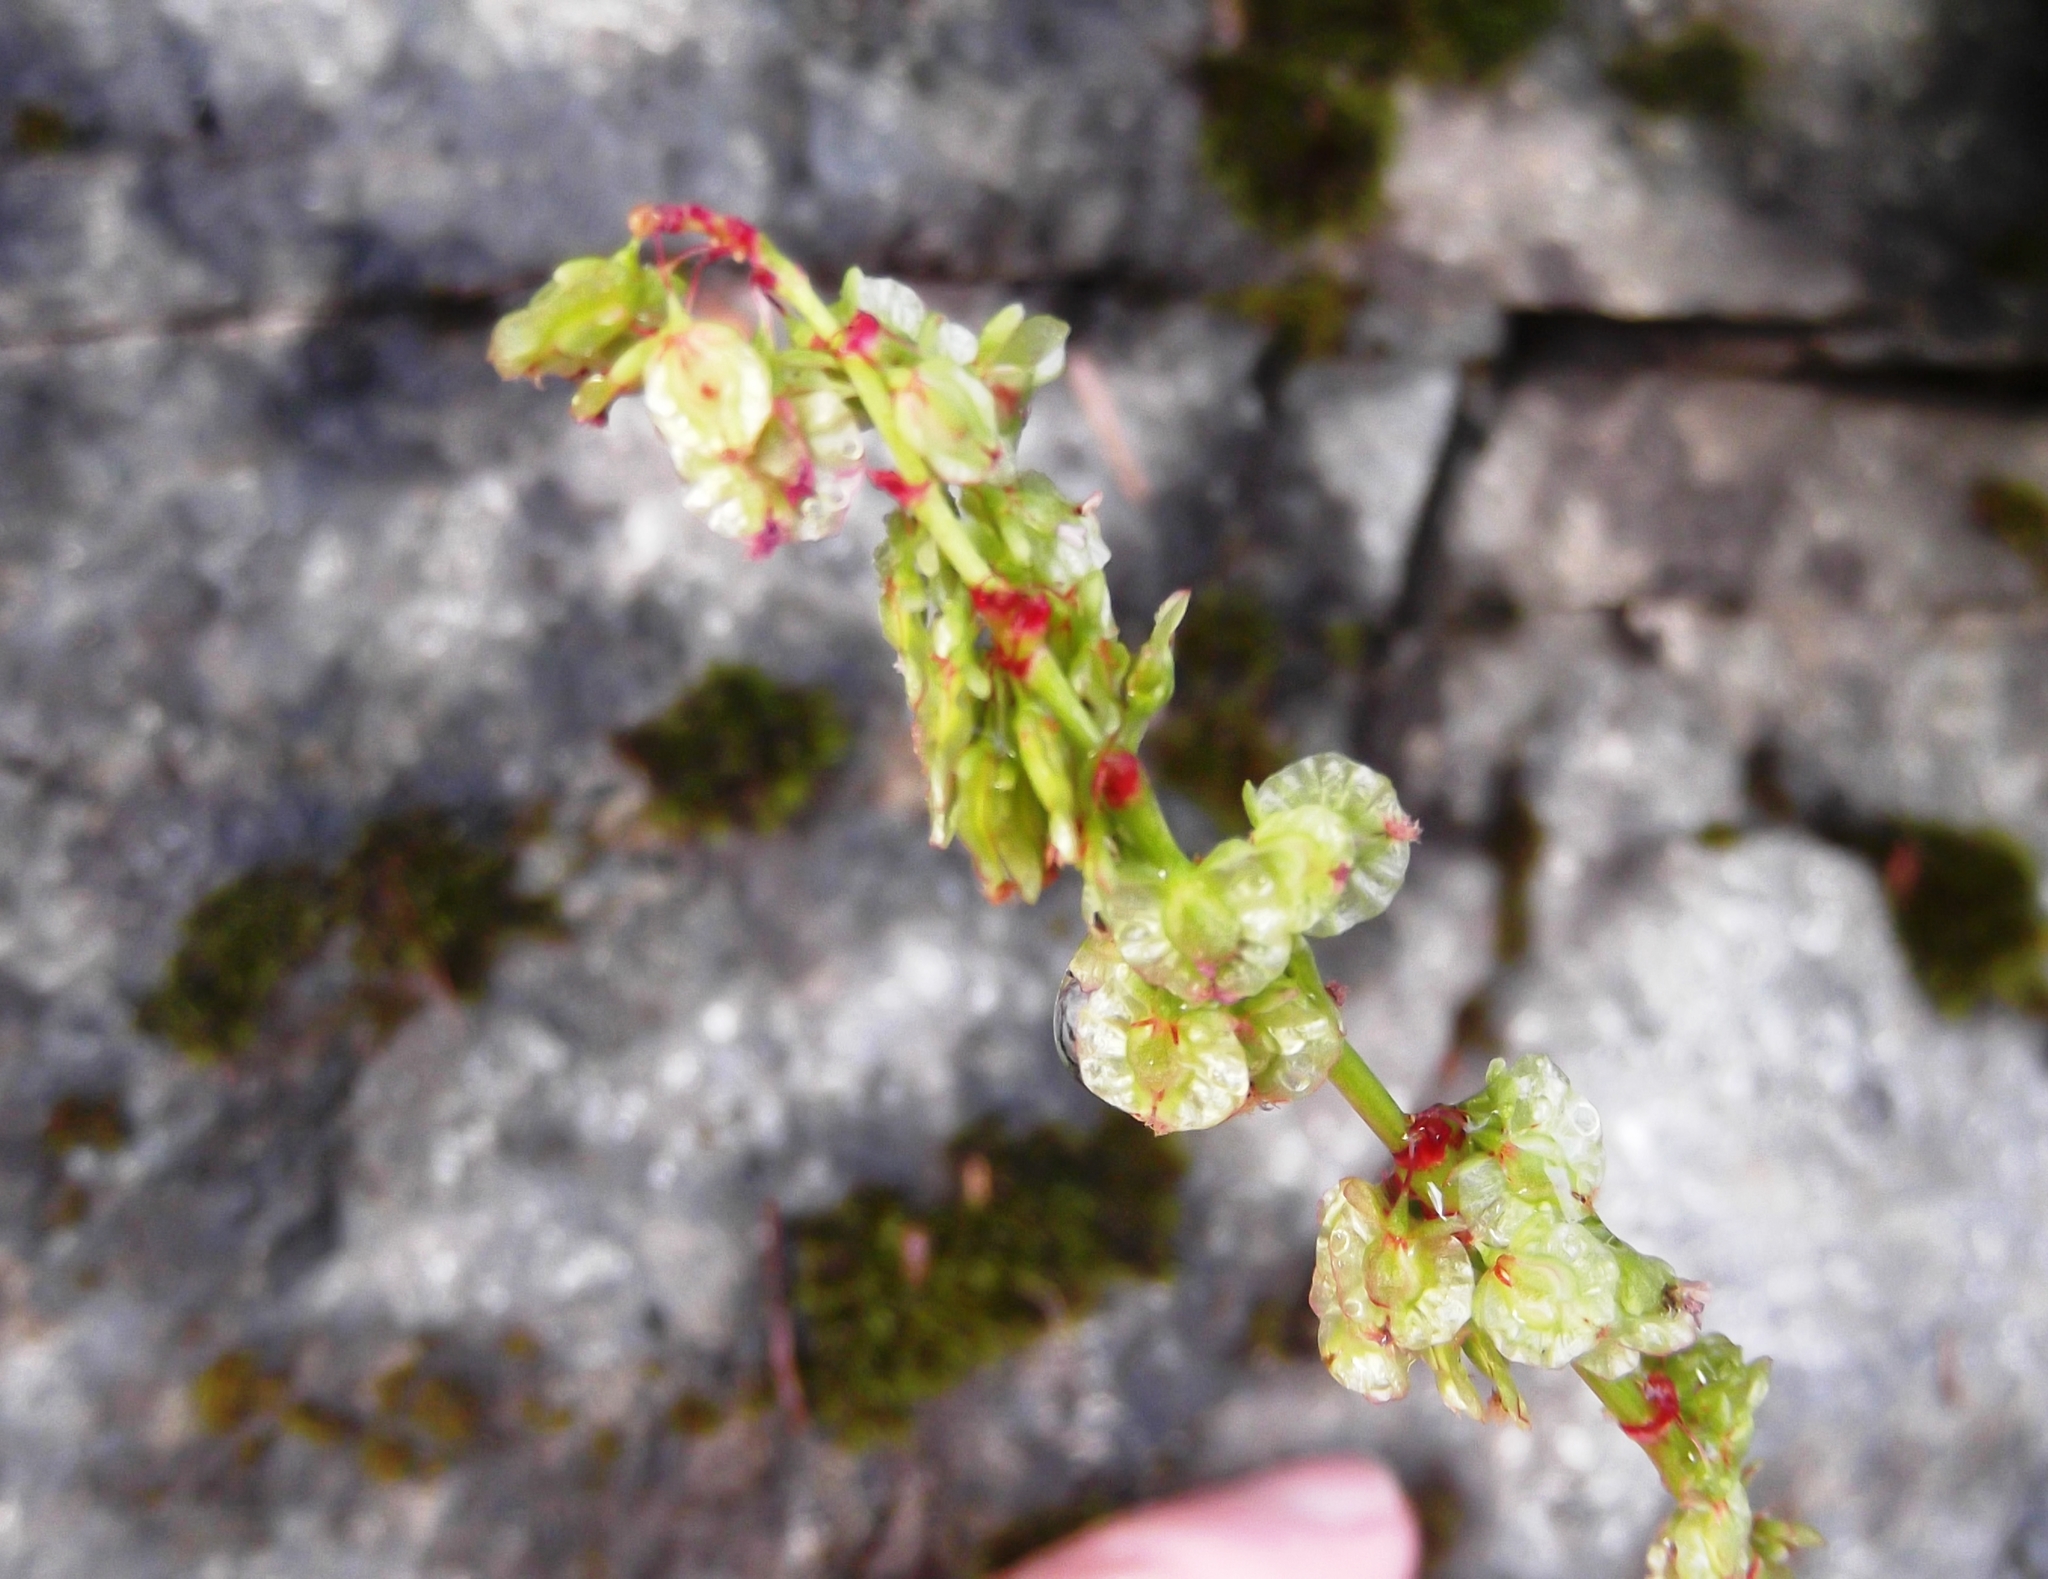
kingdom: Plantae
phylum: Tracheophyta
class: Magnoliopsida
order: Caryophyllales
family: Polygonaceae
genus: Oxyria
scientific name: Oxyria digyna
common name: Alpine mountain-sorrel
